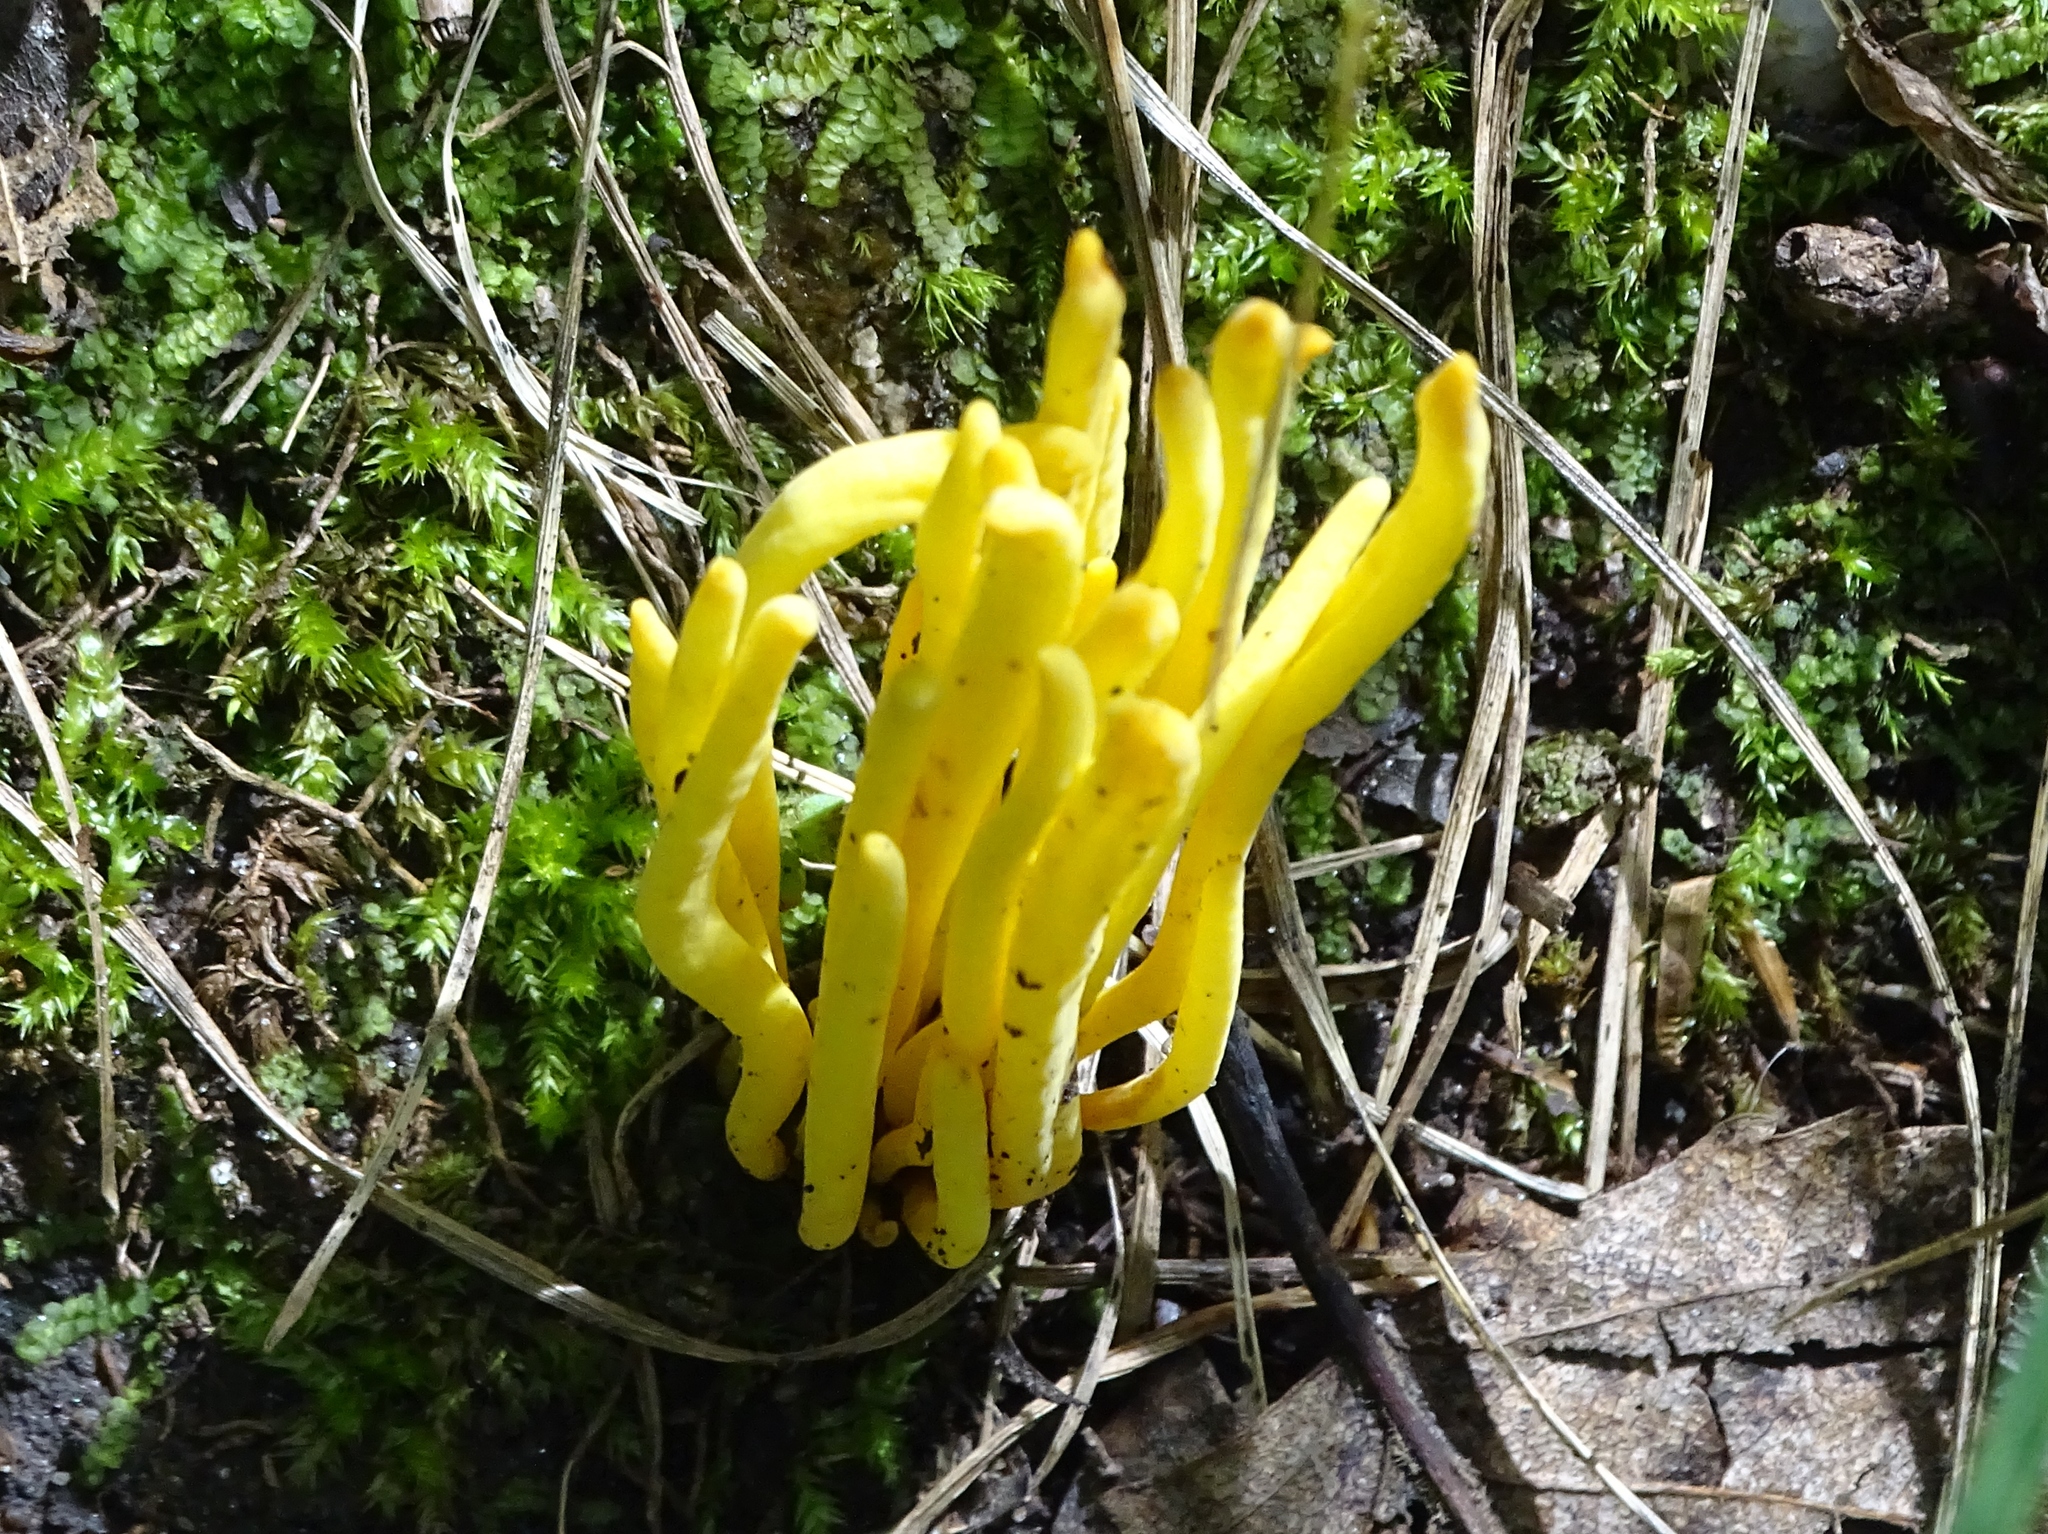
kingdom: Fungi
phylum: Basidiomycota
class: Agaricomycetes
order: Agaricales
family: Clavariaceae
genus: Clavulinopsis
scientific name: Clavulinopsis fusiformis
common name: Golden spindles
